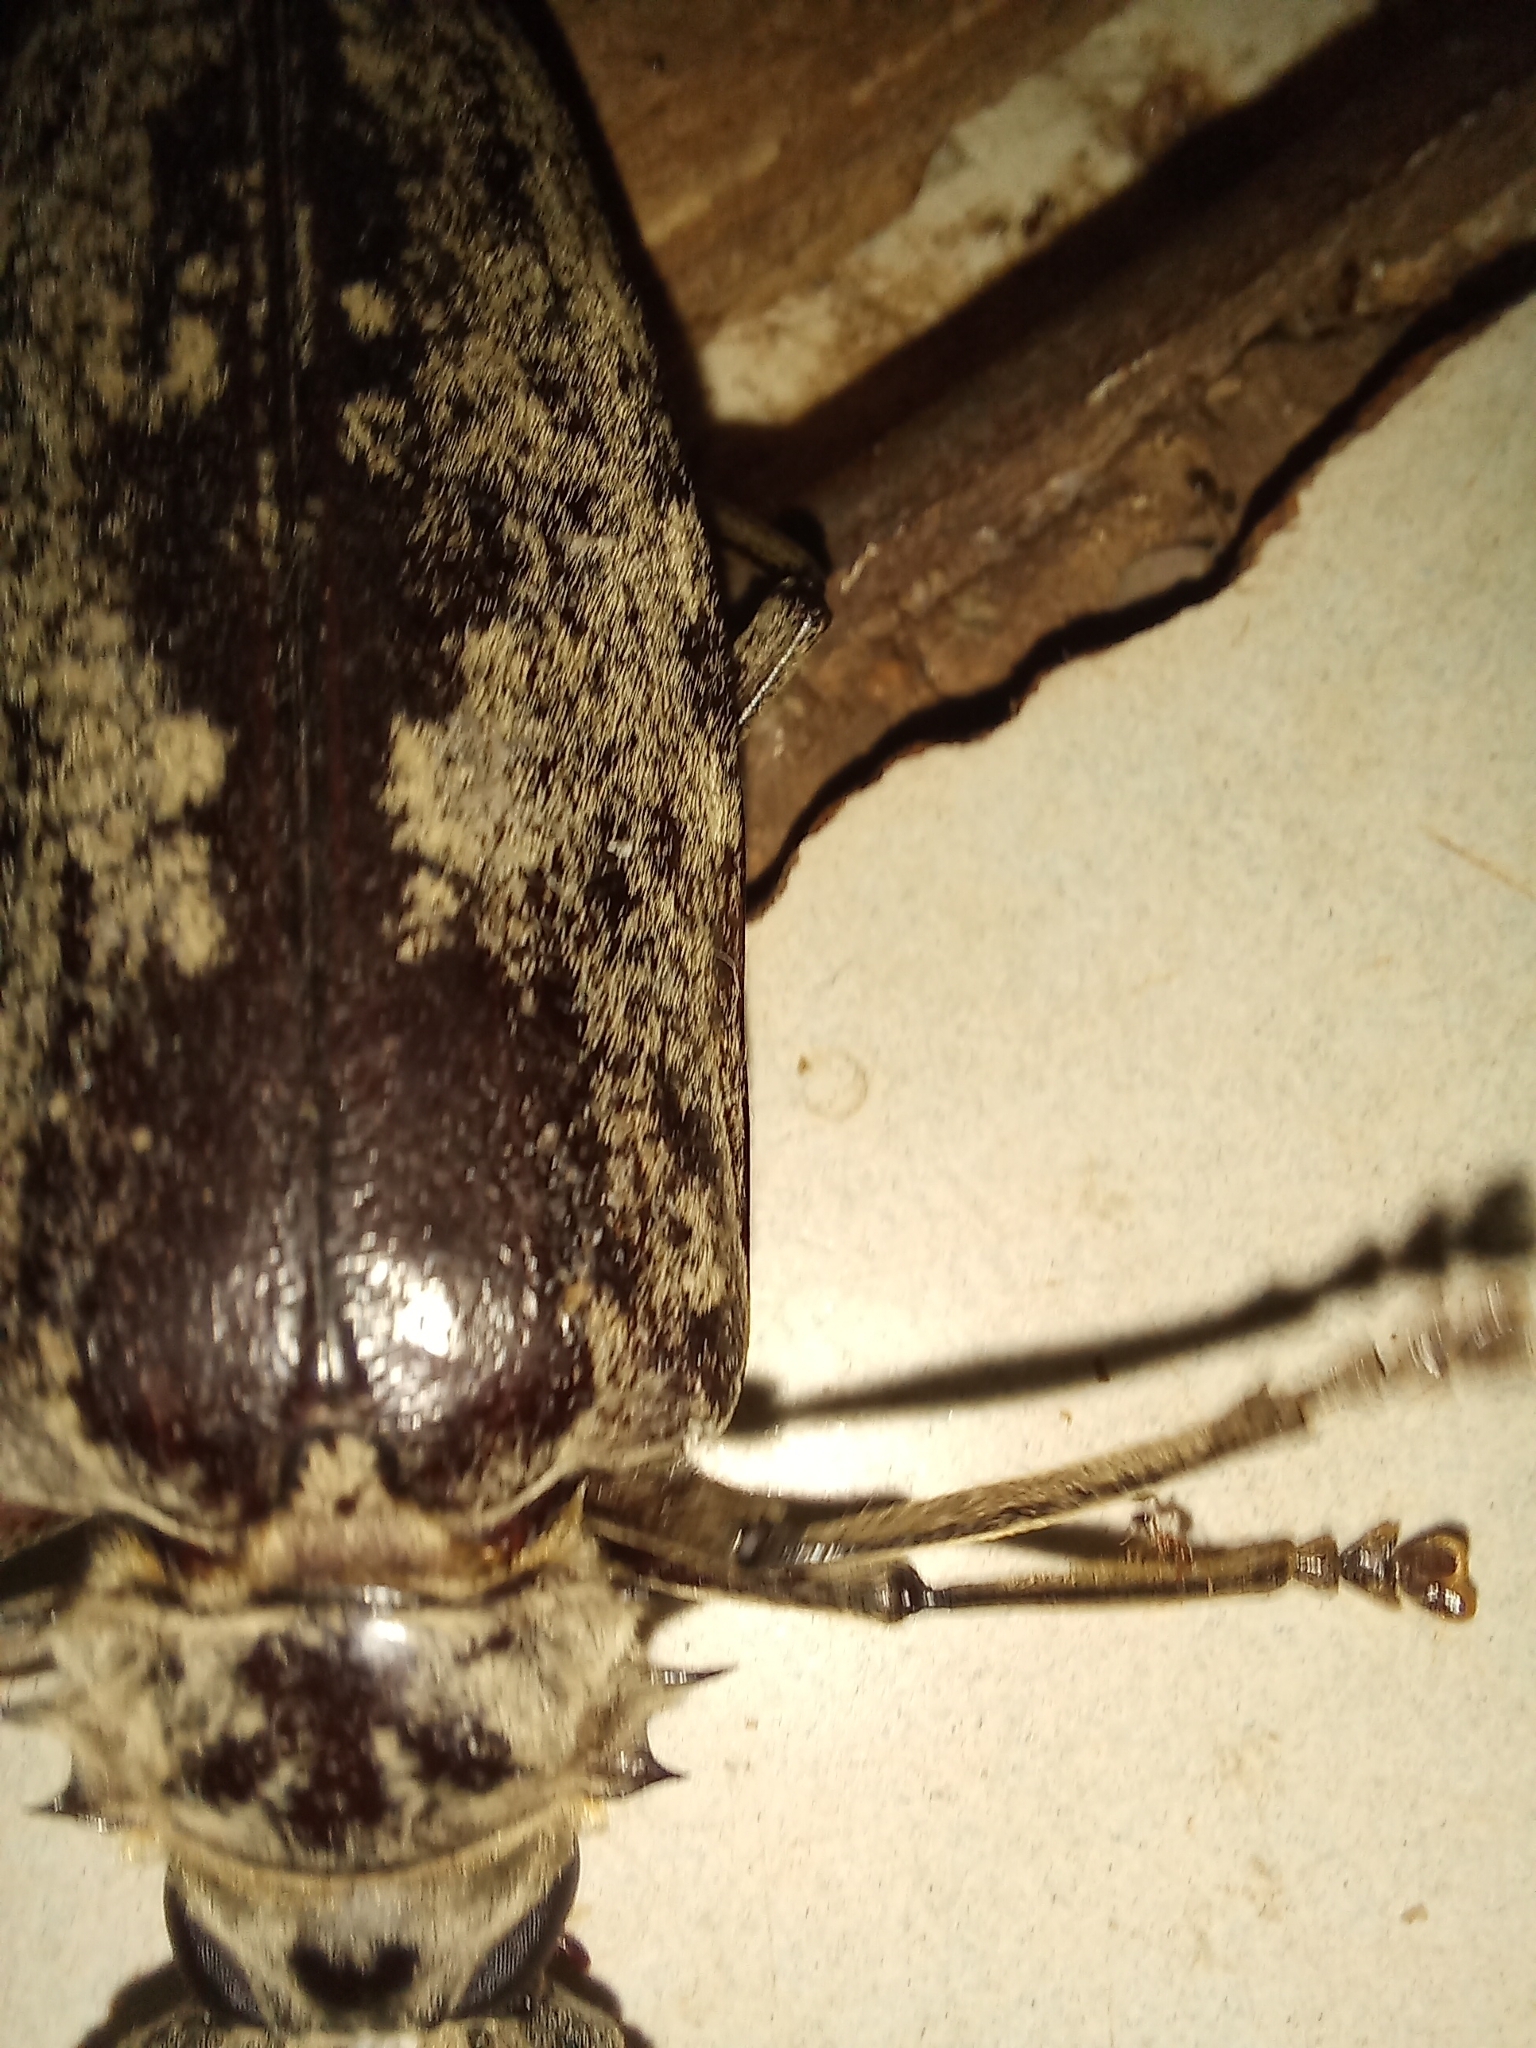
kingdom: Animalia
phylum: Arthropoda
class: Insecta
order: Coleoptera
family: Cerambycidae
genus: Tithoes
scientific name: Tithoes confinis
